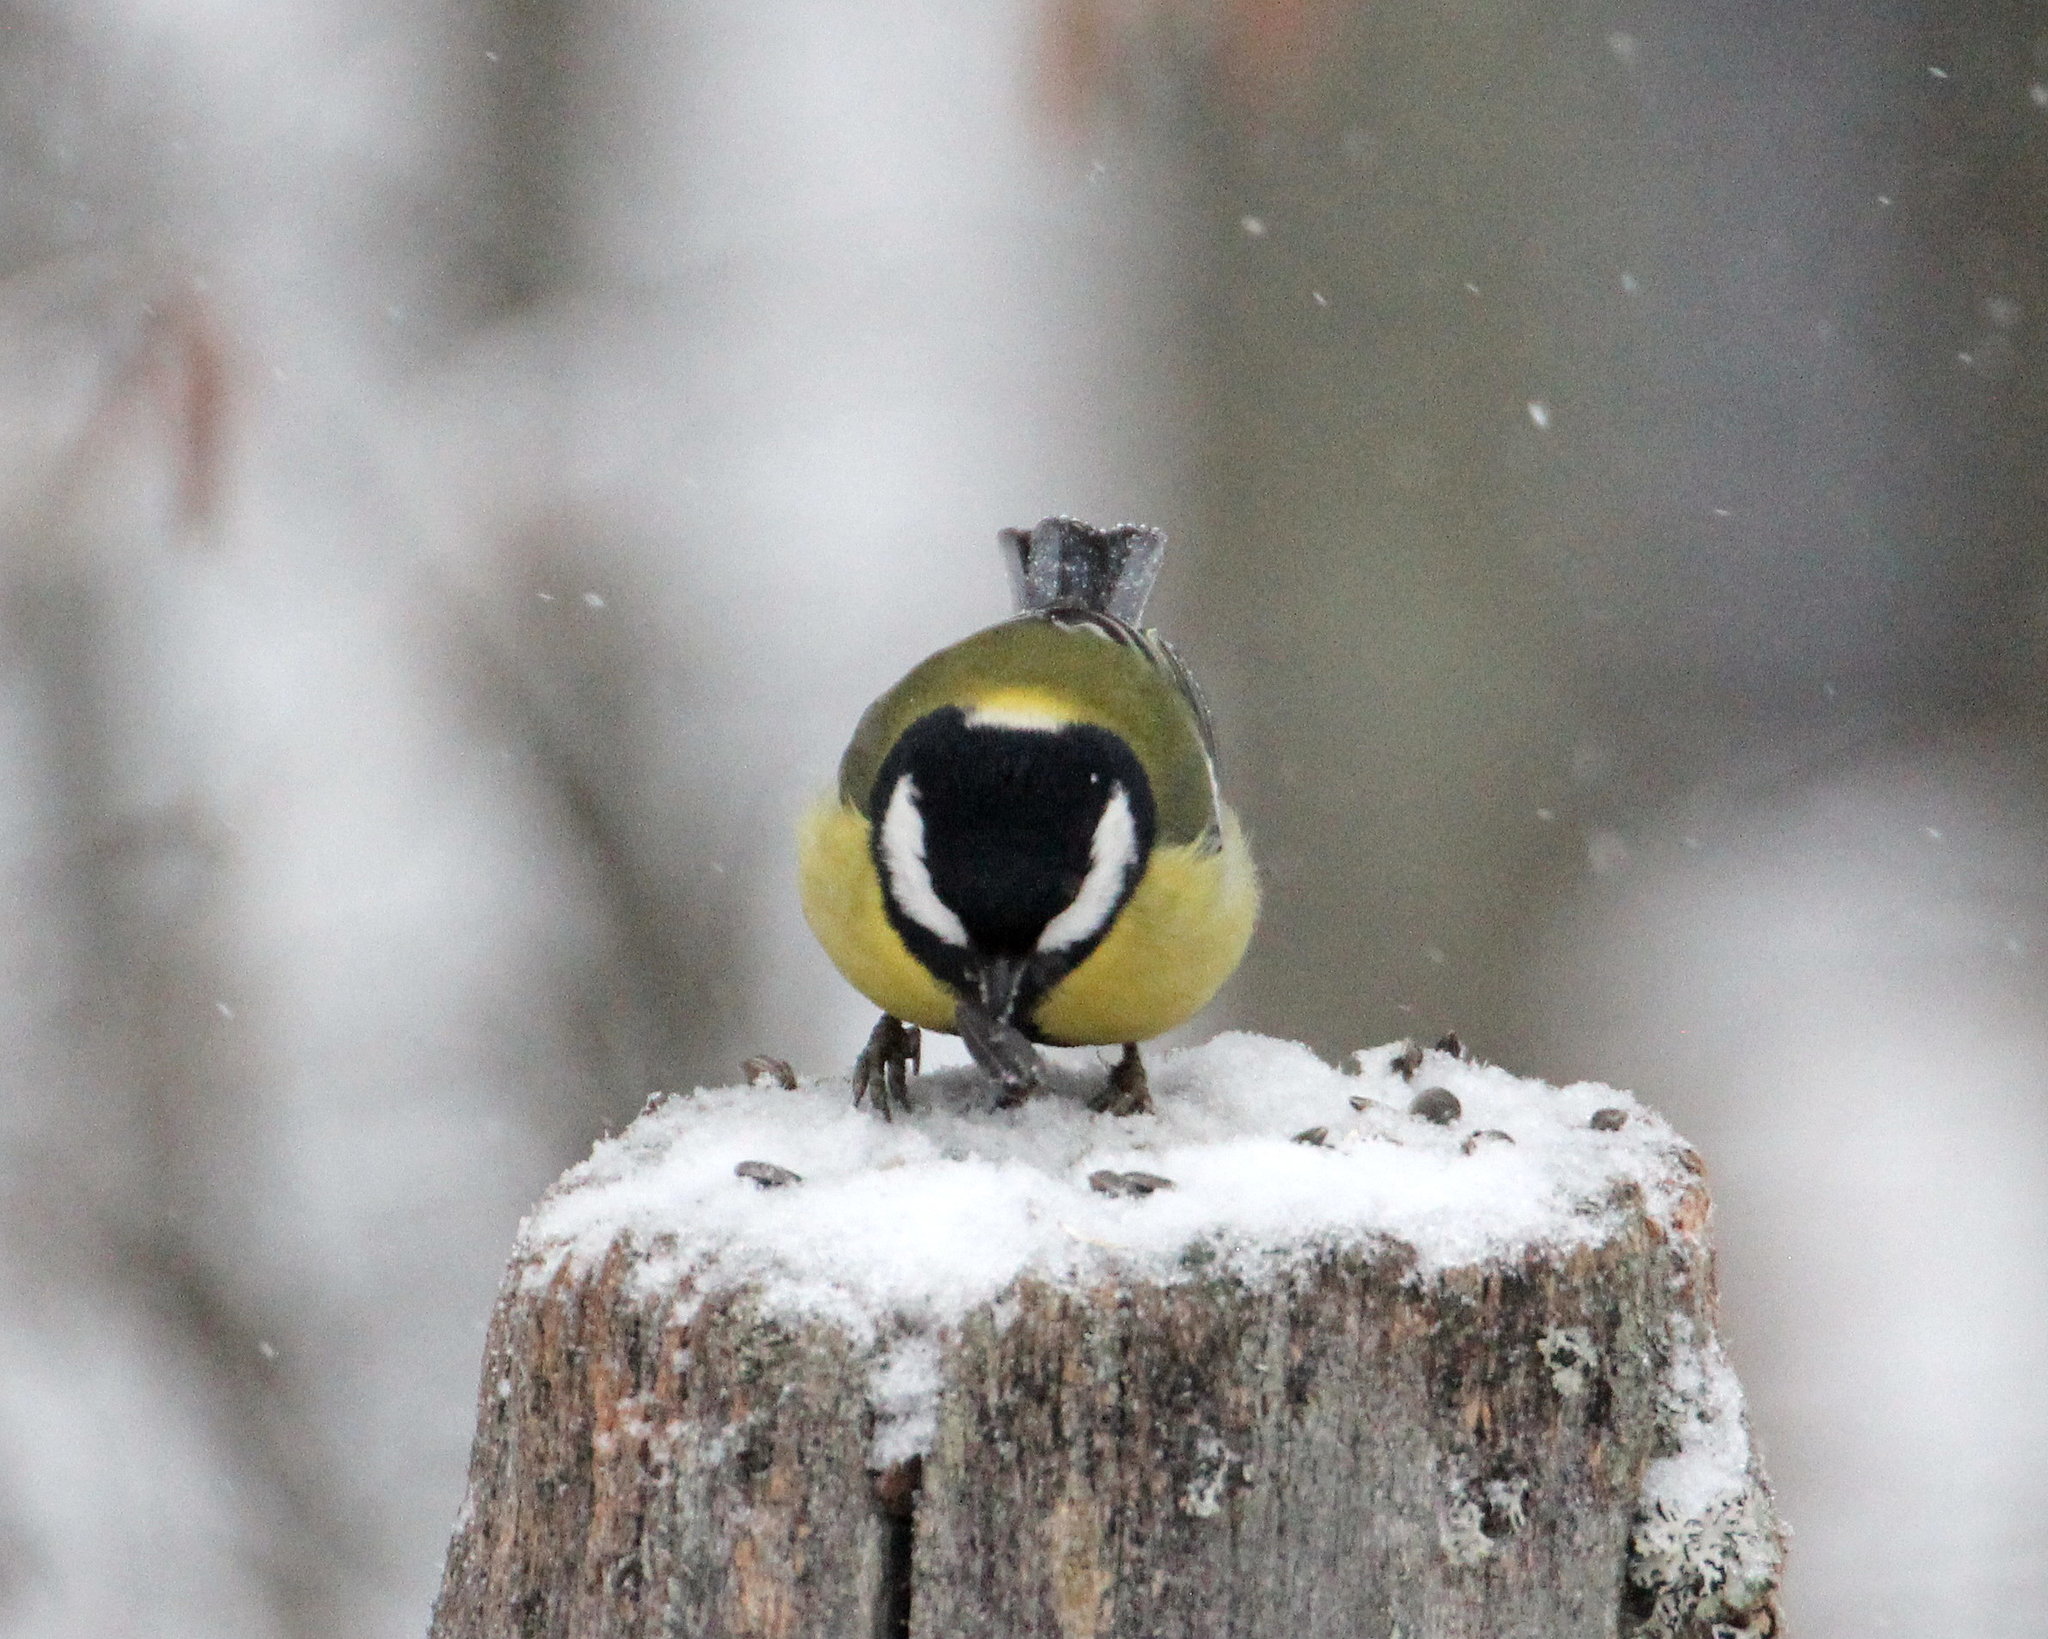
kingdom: Animalia
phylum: Chordata
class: Aves
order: Passeriformes
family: Paridae
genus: Parus
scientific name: Parus major
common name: Great tit
